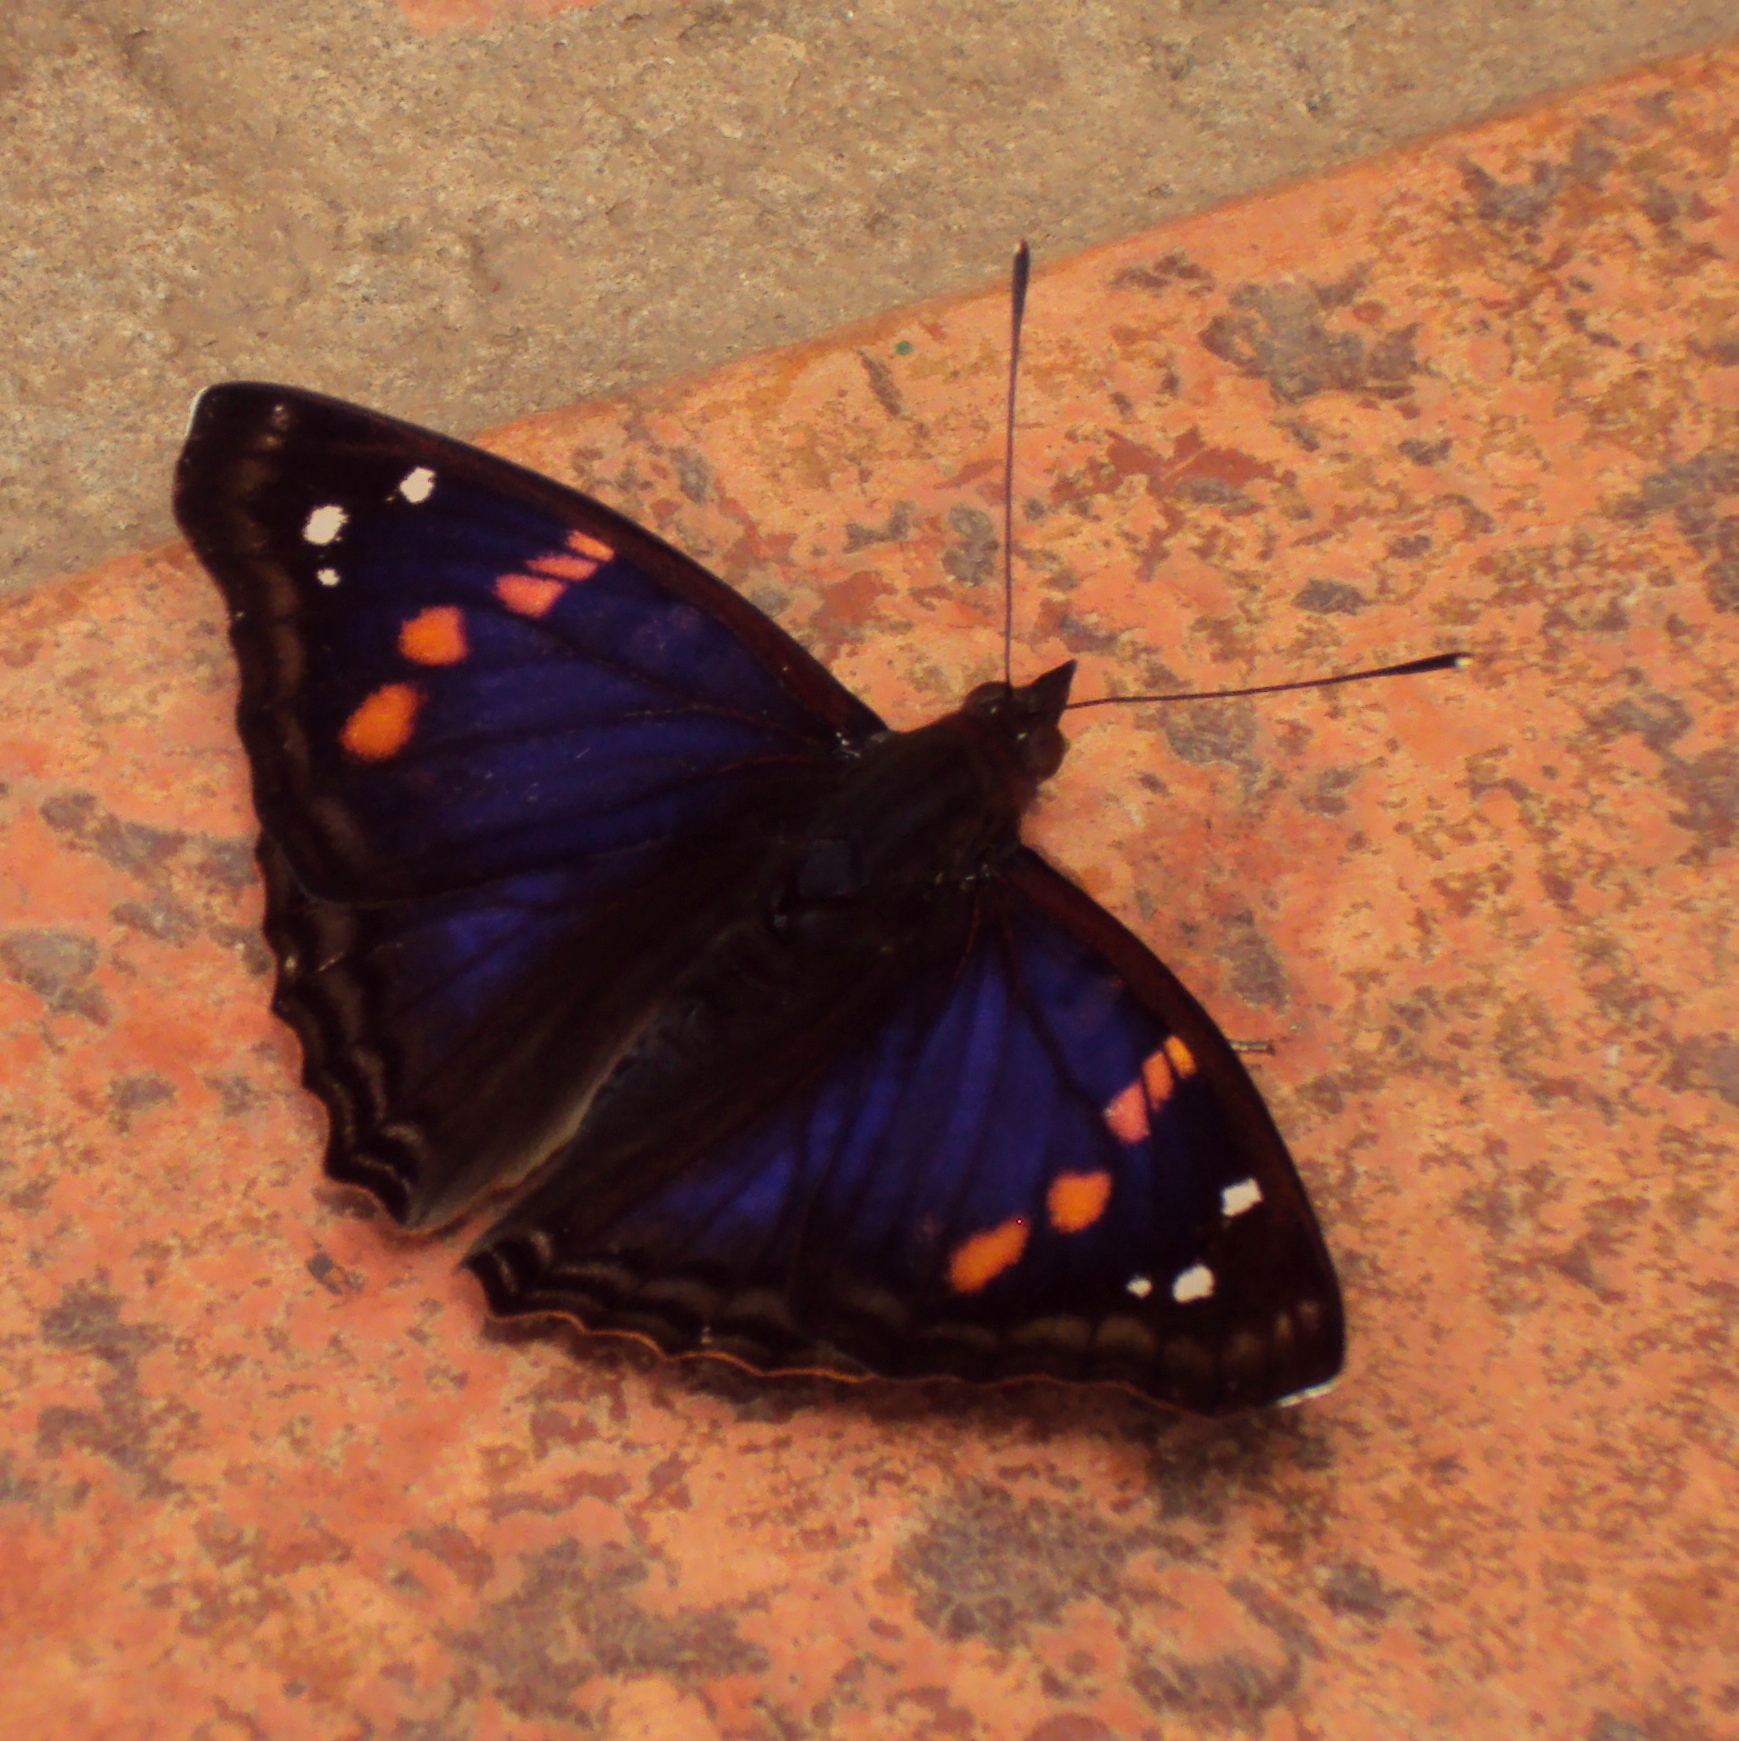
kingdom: Animalia
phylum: Arthropoda
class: Insecta
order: Lepidoptera
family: Nymphalidae
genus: Doxocopa
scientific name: Doxocopa agathina
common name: Agathina emperor
